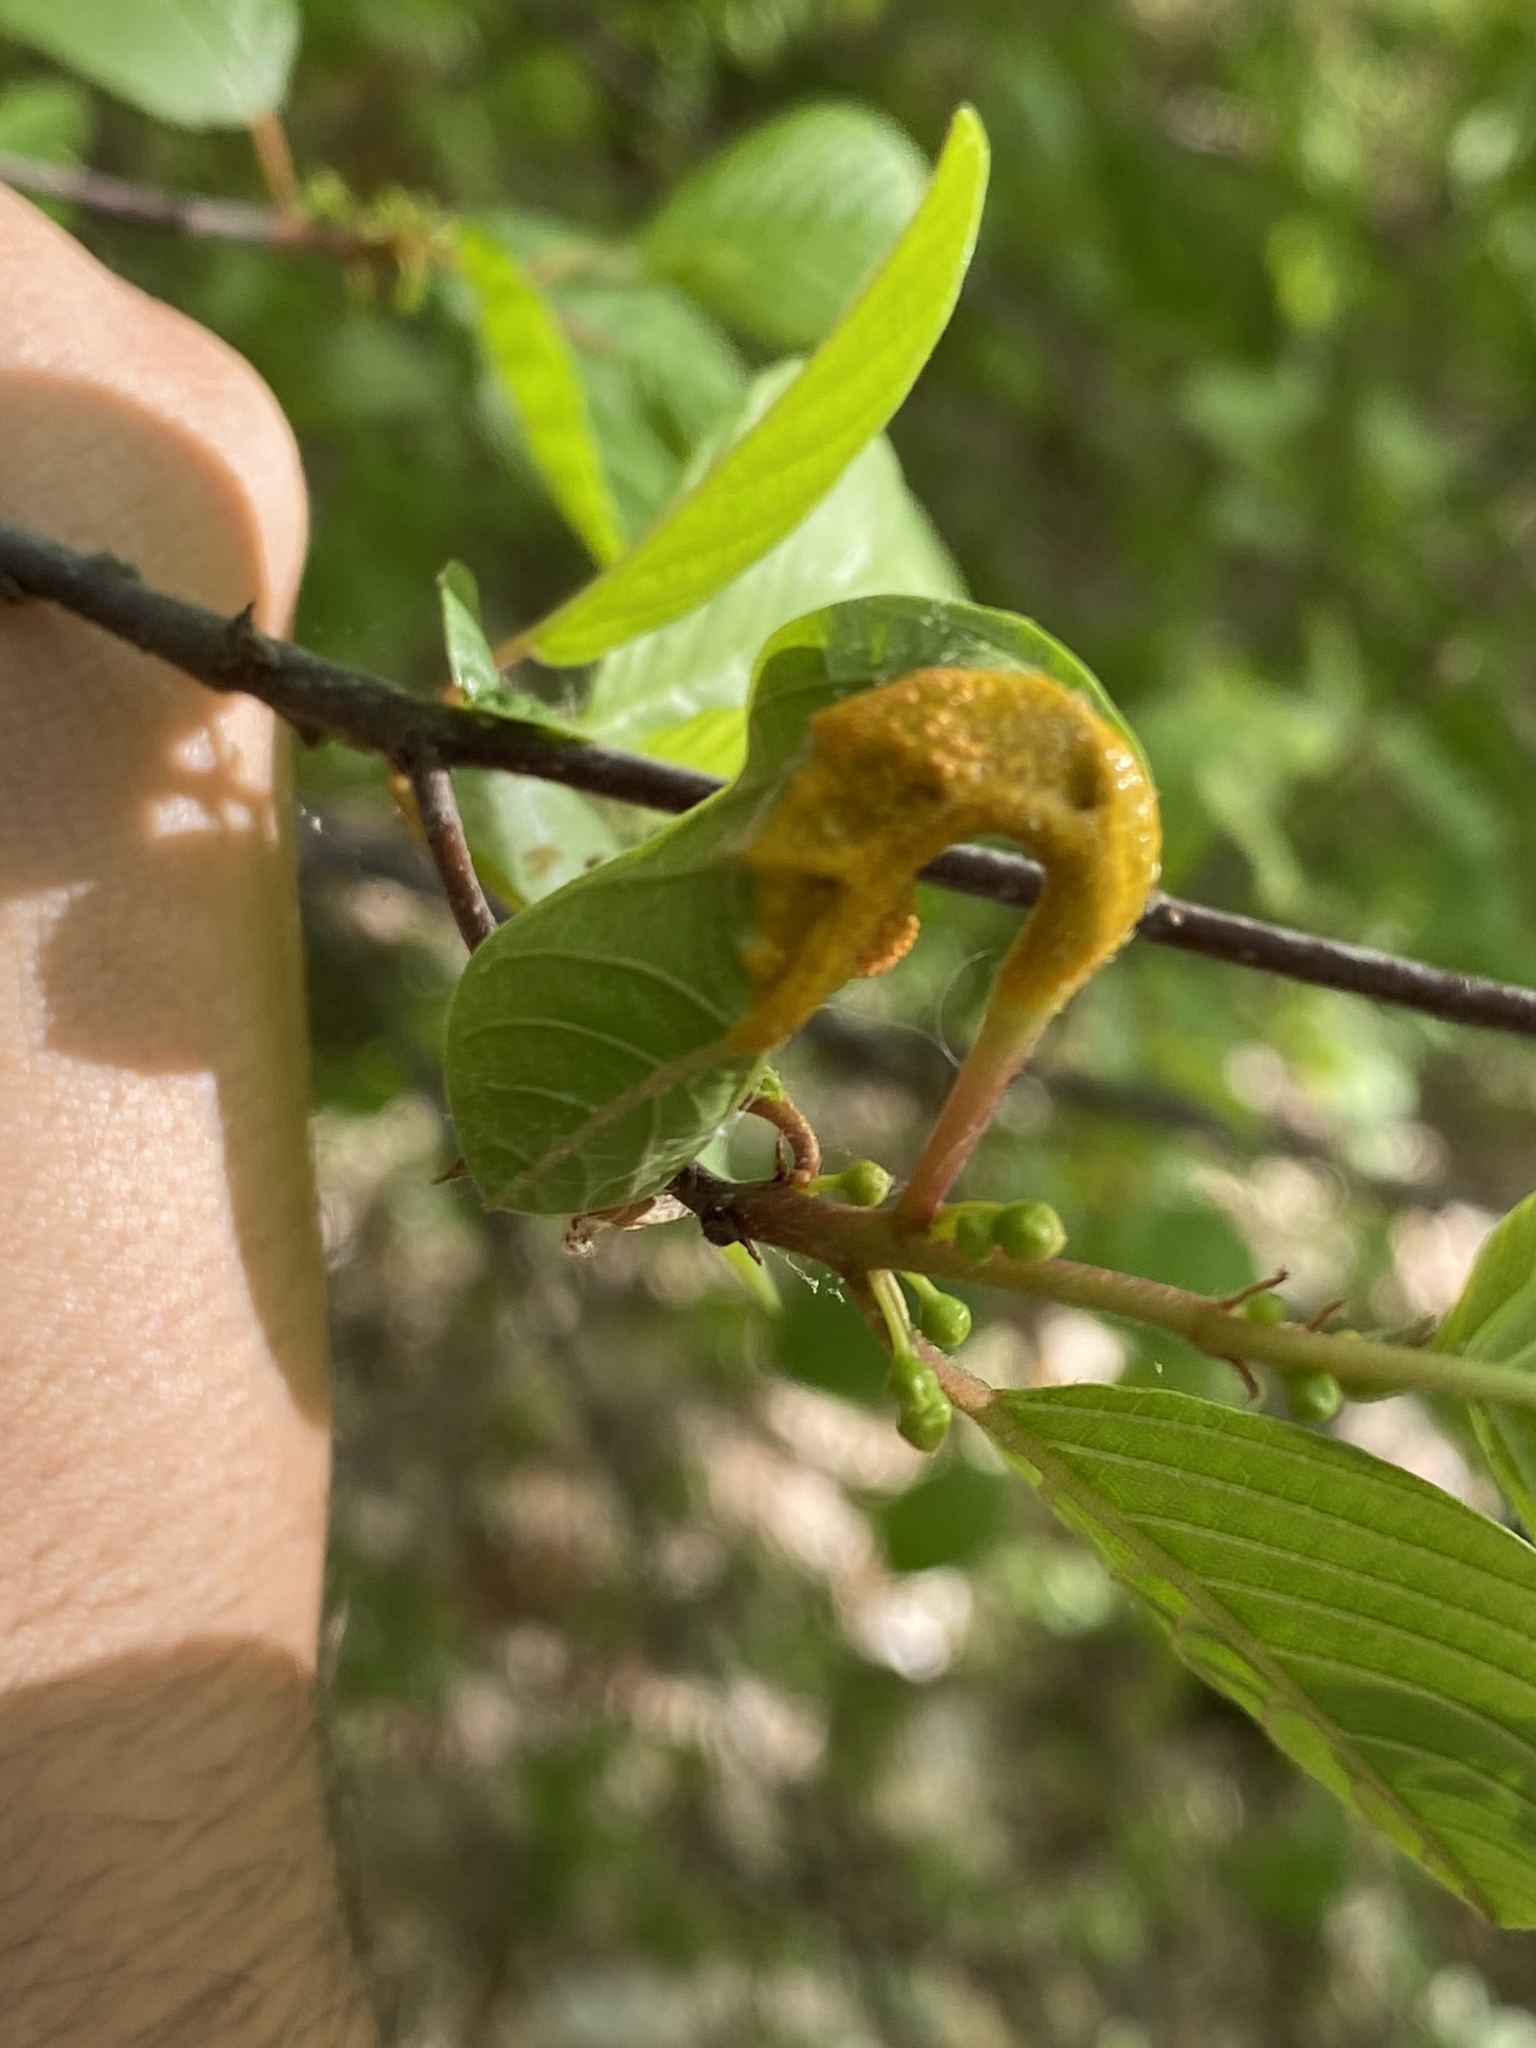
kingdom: Fungi
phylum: Basidiomycota
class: Pucciniomycetes
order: Pucciniales
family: Pucciniaceae
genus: Puccinia
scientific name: Puccinia coronata
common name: Crown rust
